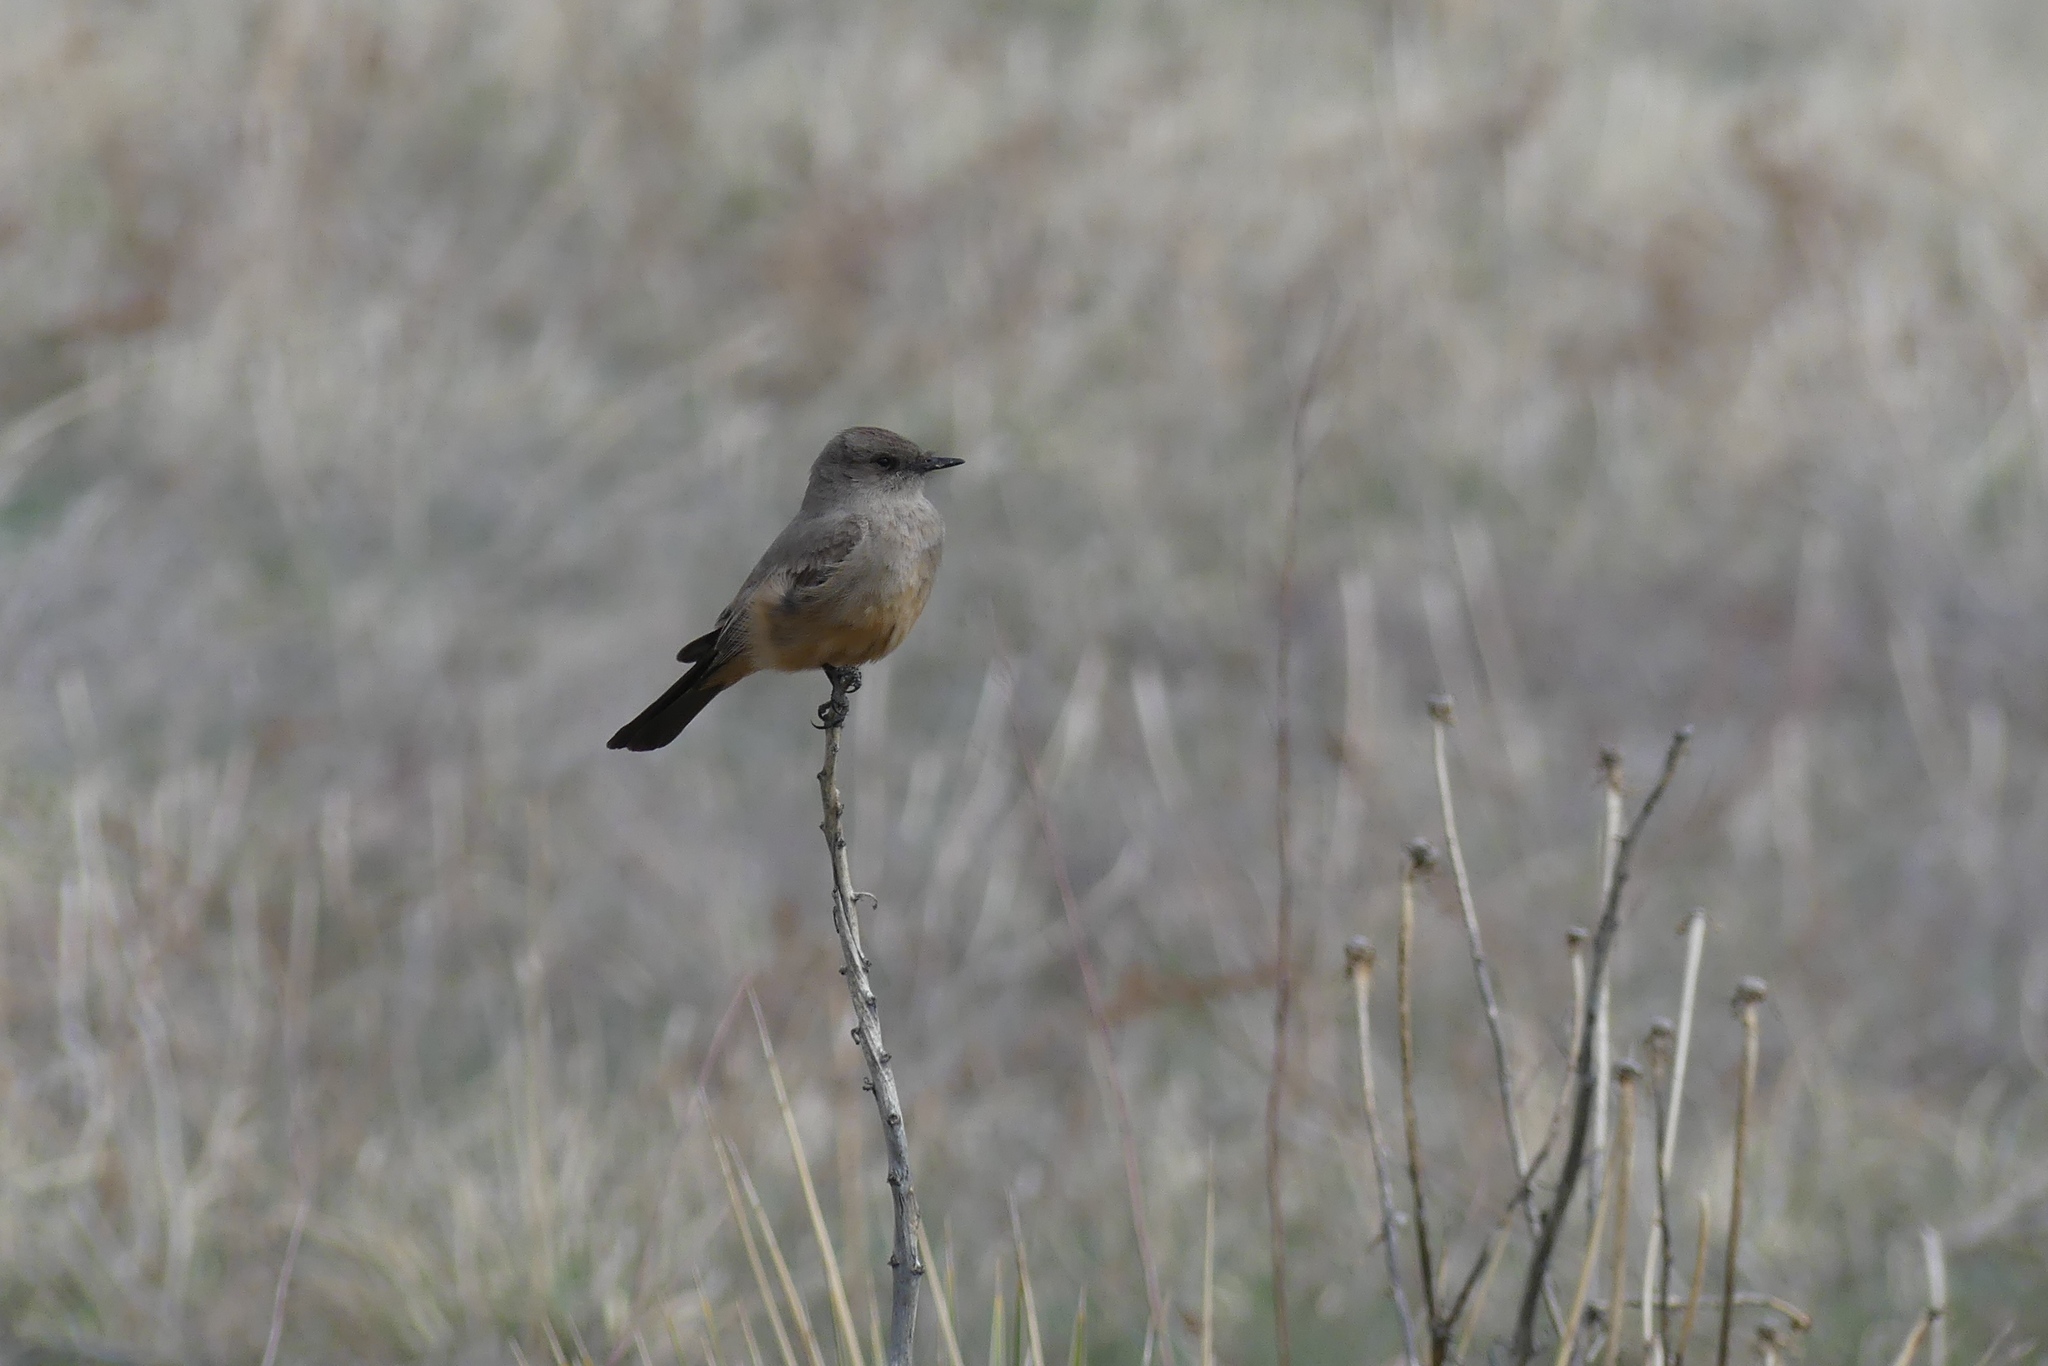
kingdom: Animalia
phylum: Chordata
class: Aves
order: Passeriformes
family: Tyrannidae
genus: Sayornis
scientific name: Sayornis saya
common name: Say's phoebe
